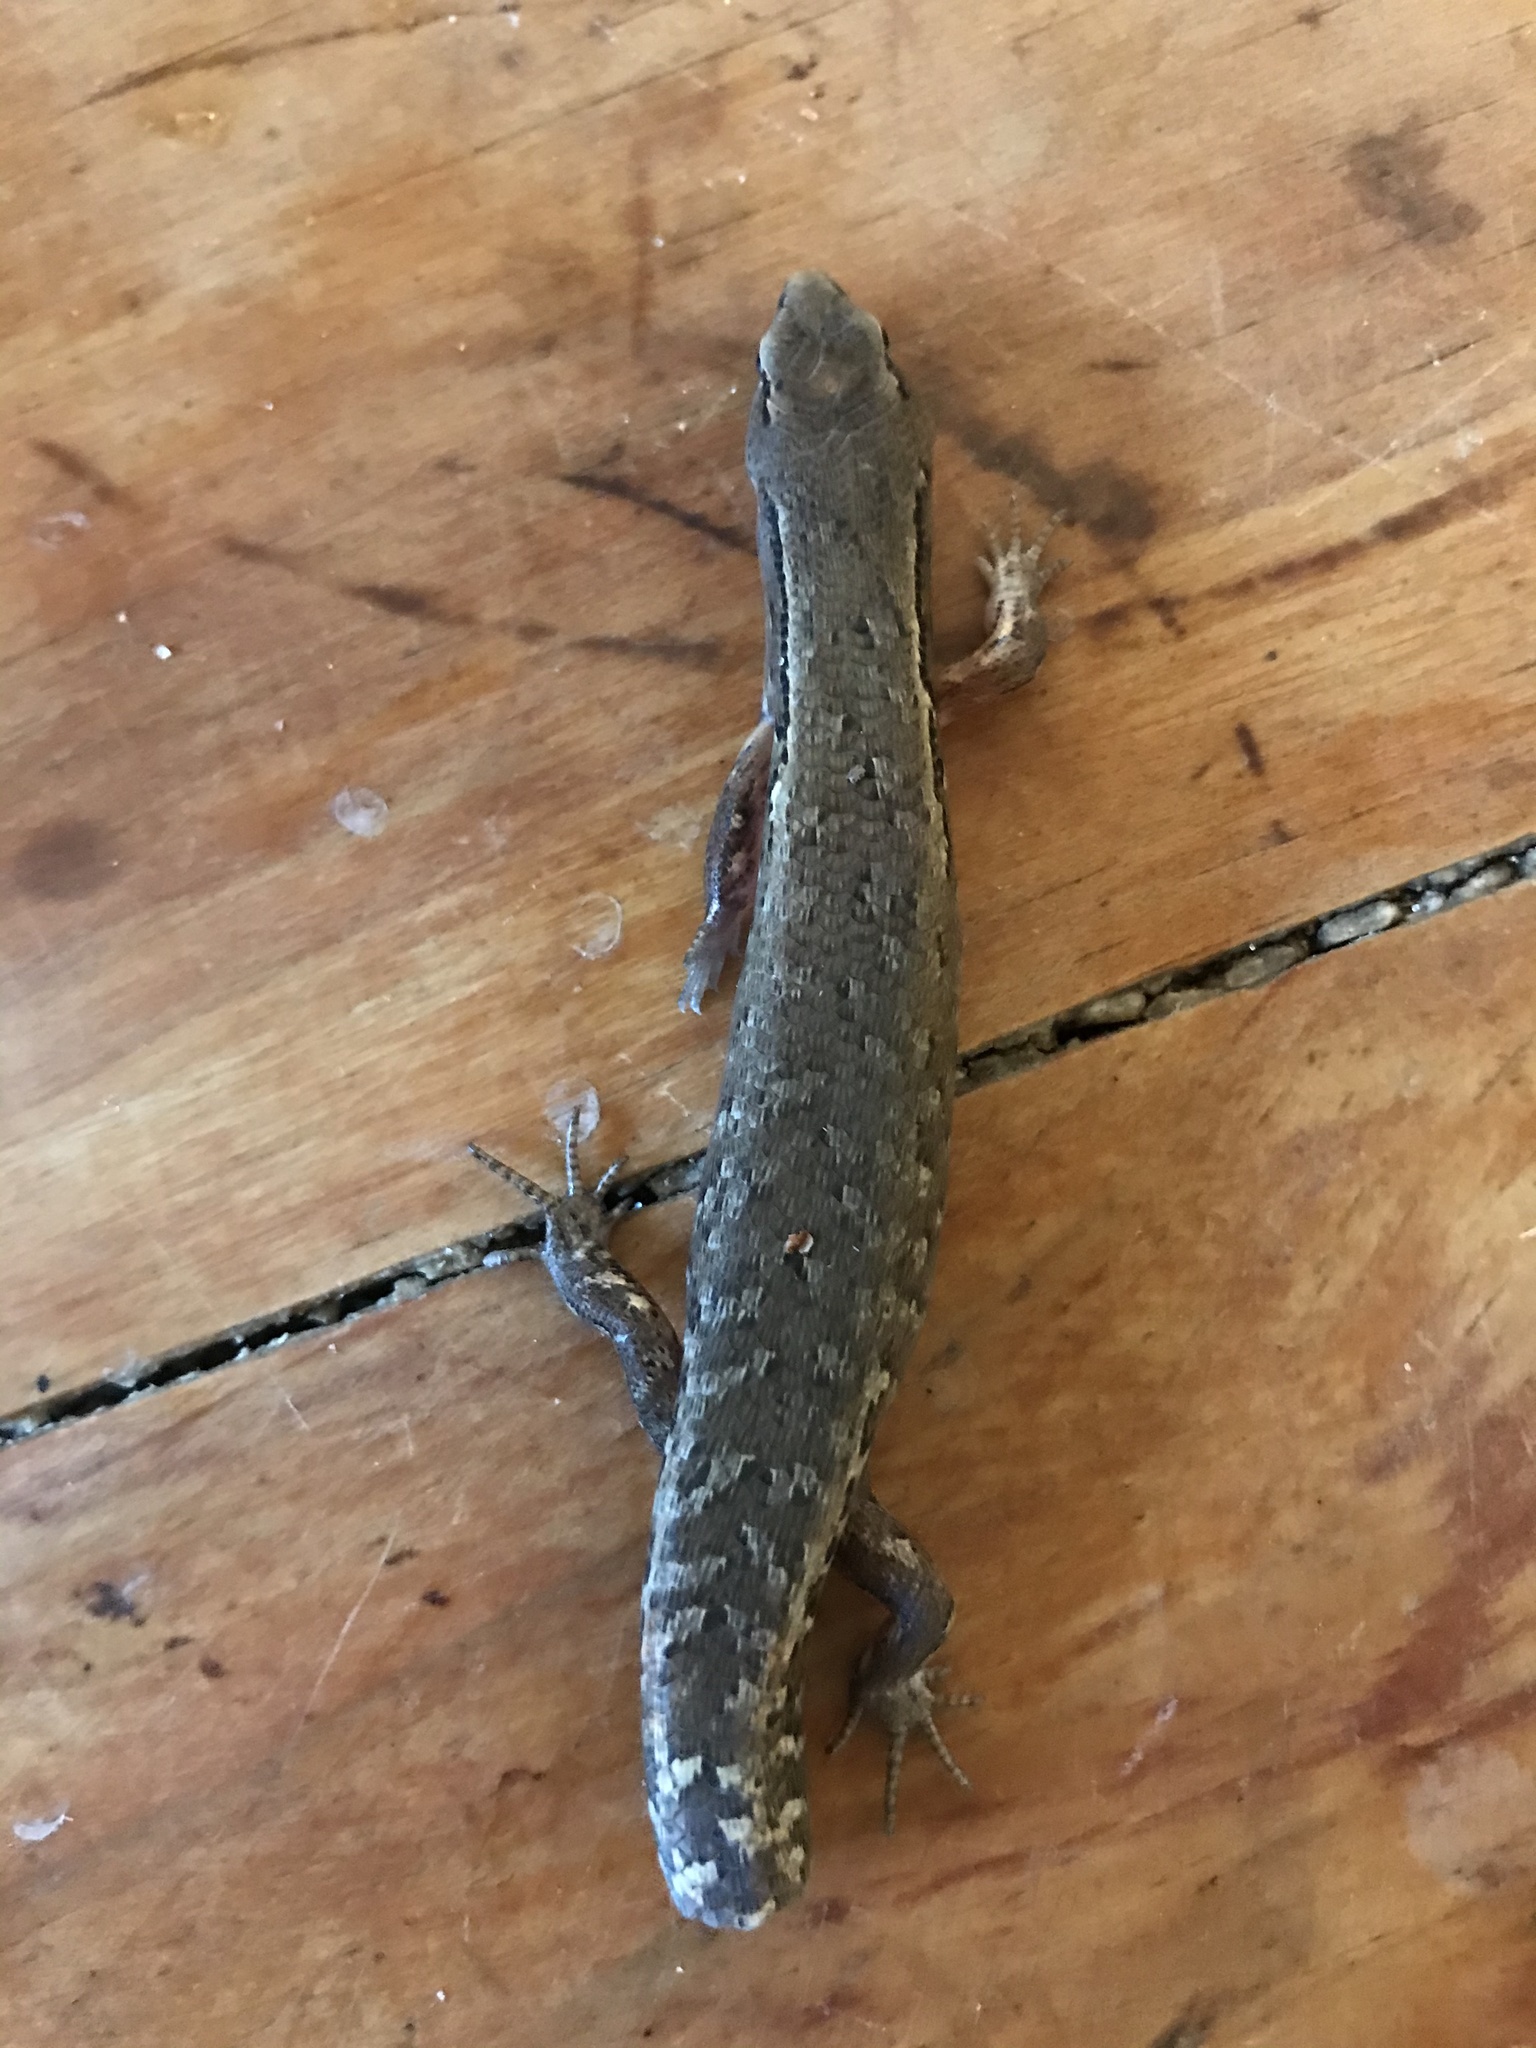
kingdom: Animalia
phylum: Chordata
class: Squamata
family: Scincidae
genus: Oligosoma
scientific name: Oligosoma ornatum
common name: Gray's ornate skink
